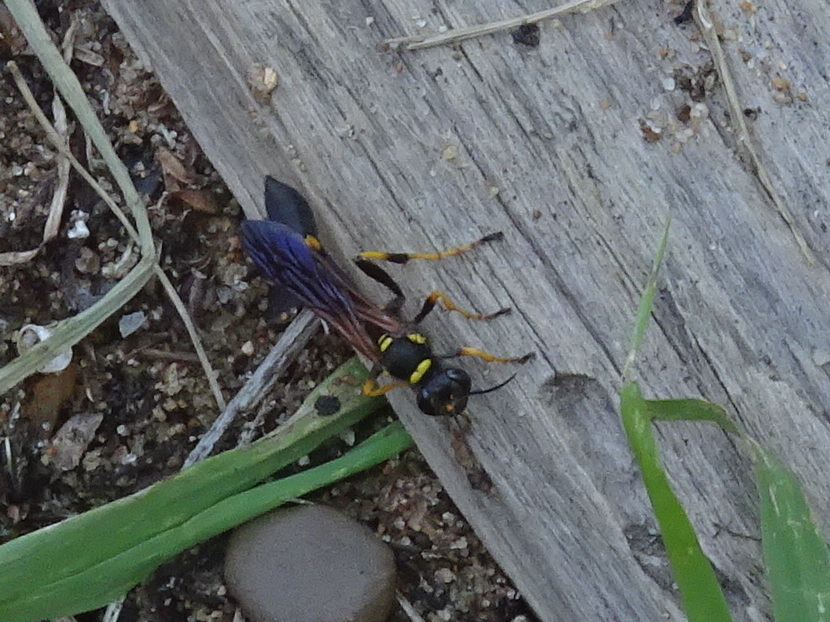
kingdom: Animalia
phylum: Arthropoda
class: Insecta
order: Hymenoptera
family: Sphecidae
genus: Sceliphron
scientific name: Sceliphron caementarium
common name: Mud dauber
